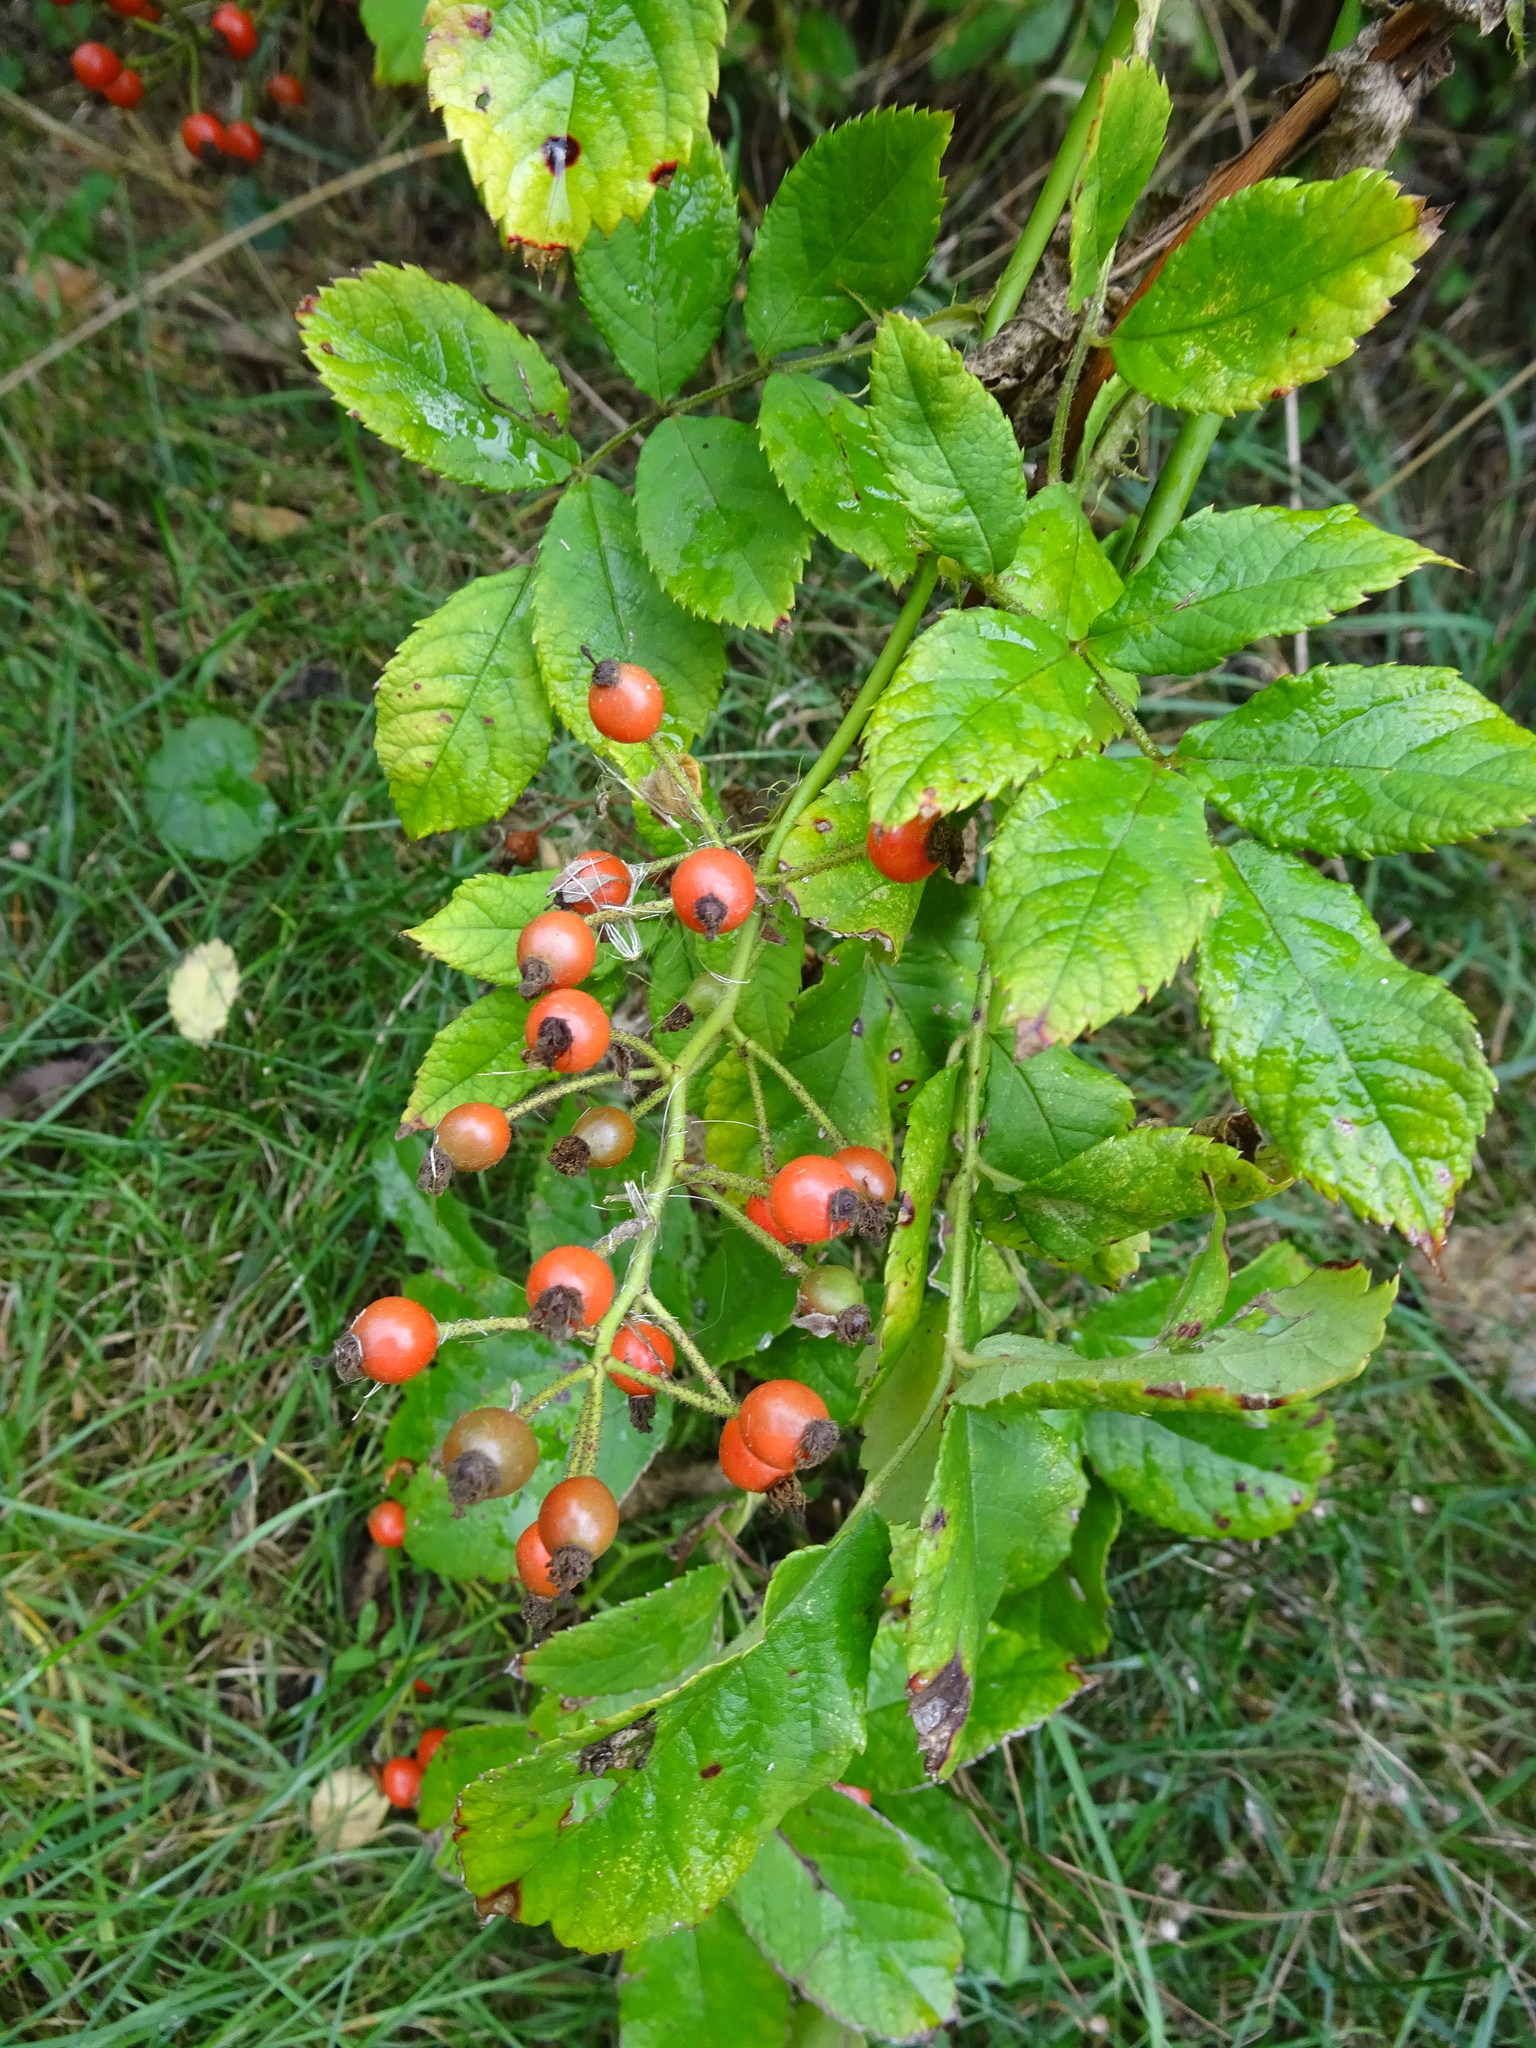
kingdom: Plantae
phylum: Tracheophyta
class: Magnoliopsida
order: Rosales
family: Rosaceae
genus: Rosa
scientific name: Rosa multiflora
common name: Multiflora rose
